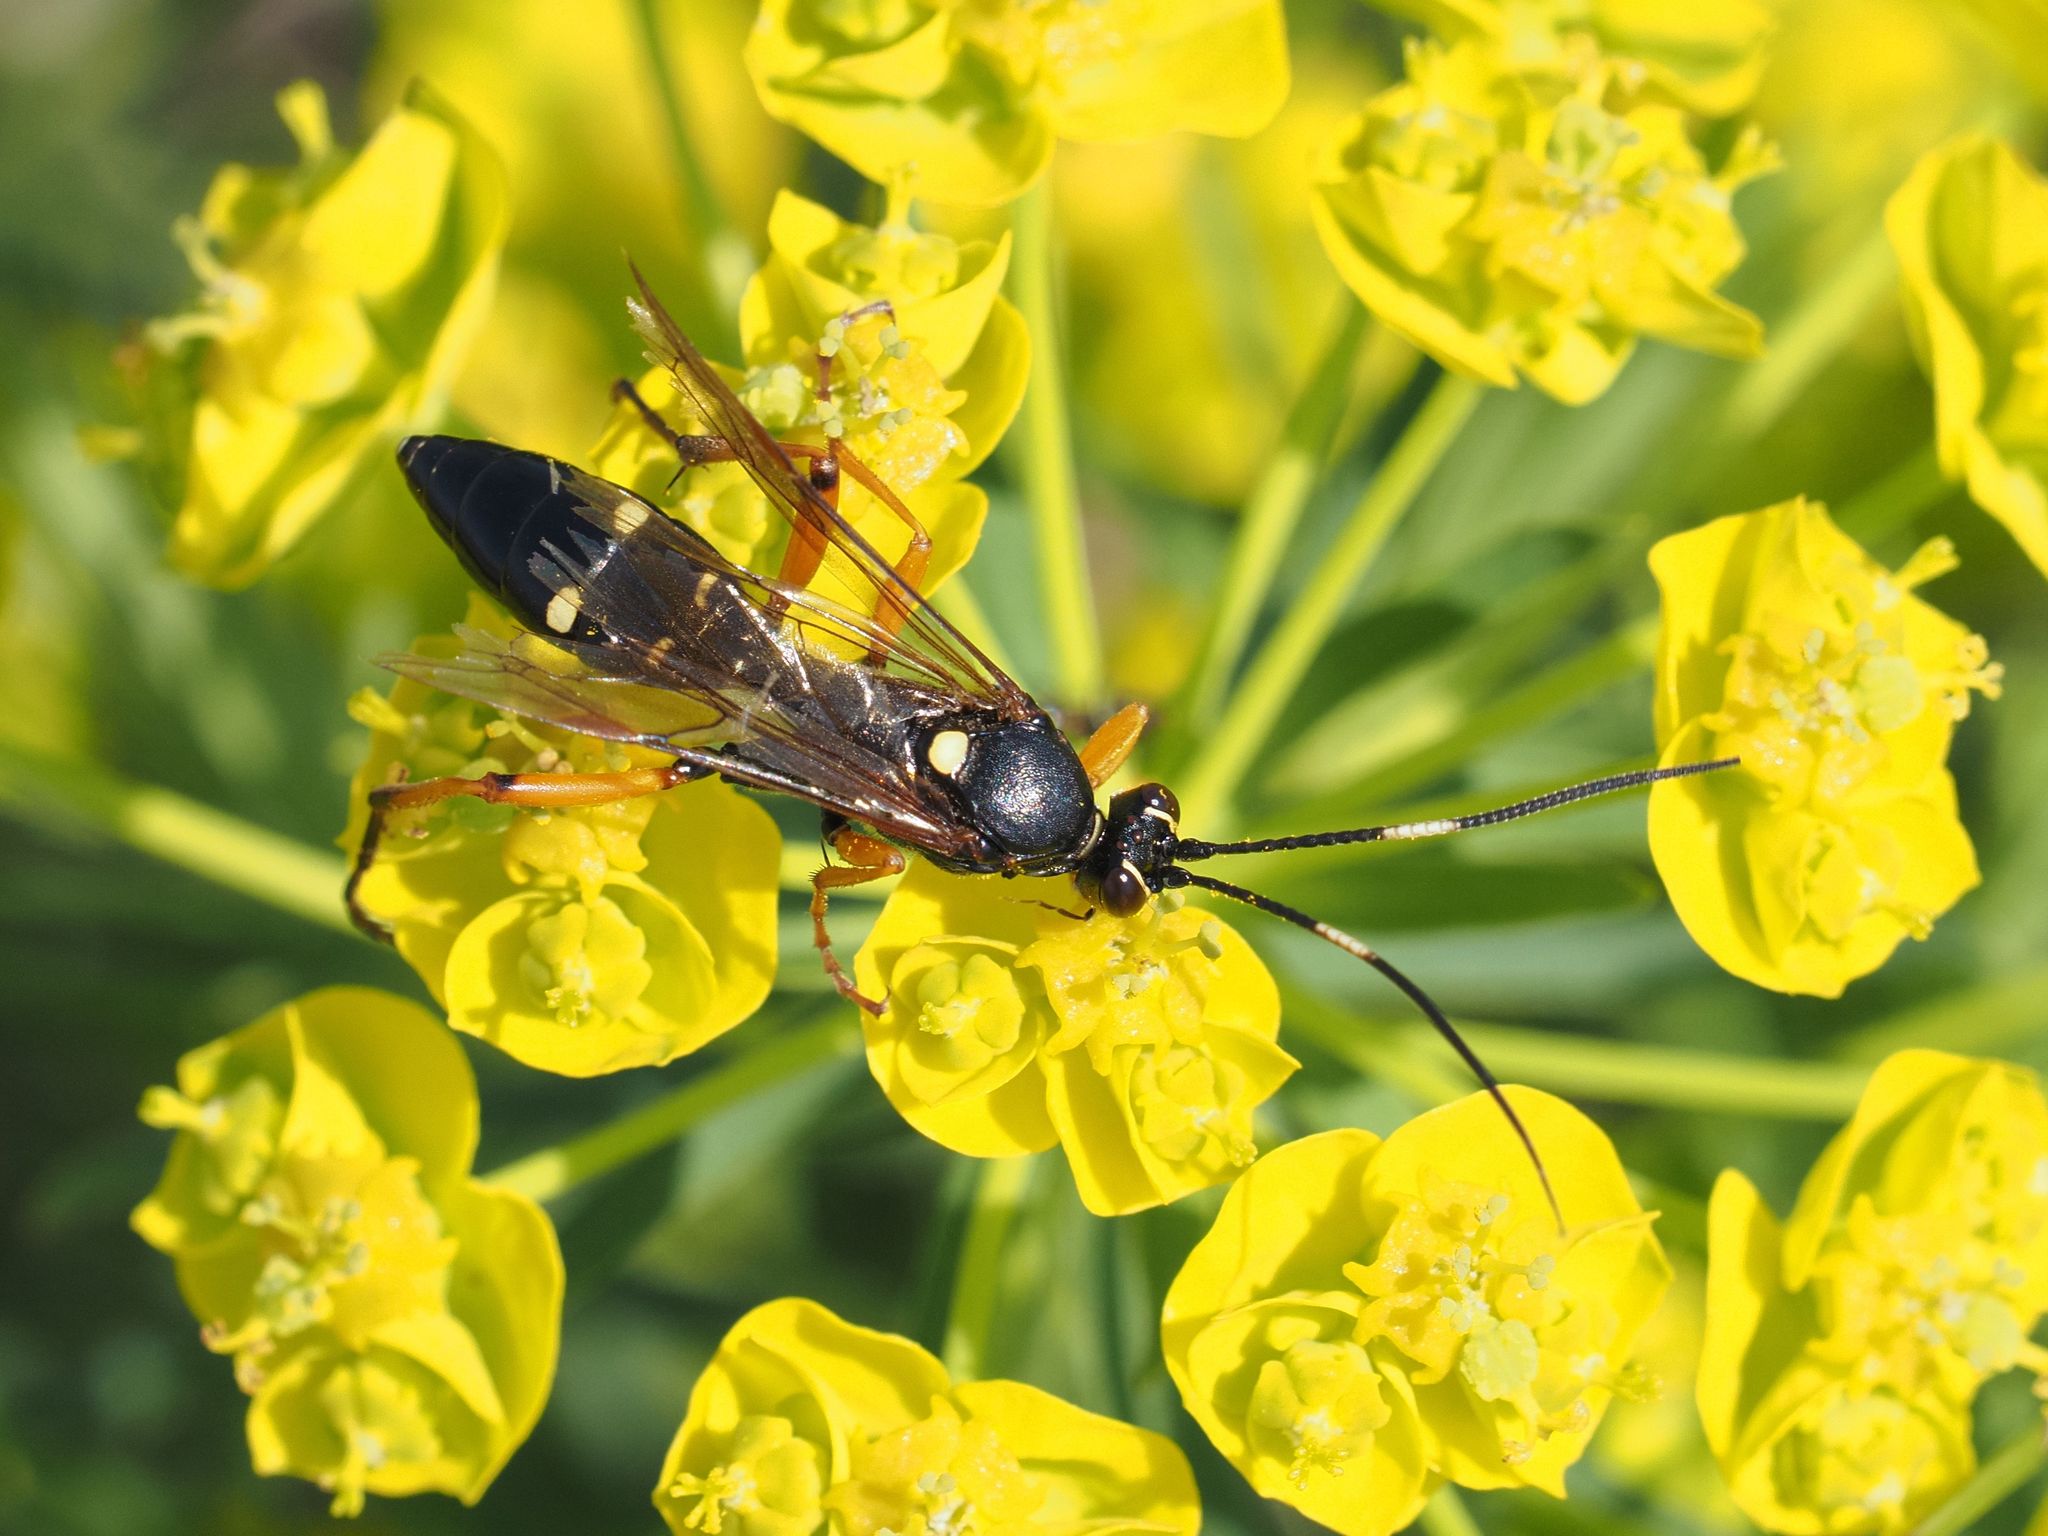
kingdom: Animalia
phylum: Arthropoda
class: Insecta
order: Hymenoptera
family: Ichneumonidae
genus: Diphyus
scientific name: Diphyus quadripunctorius
